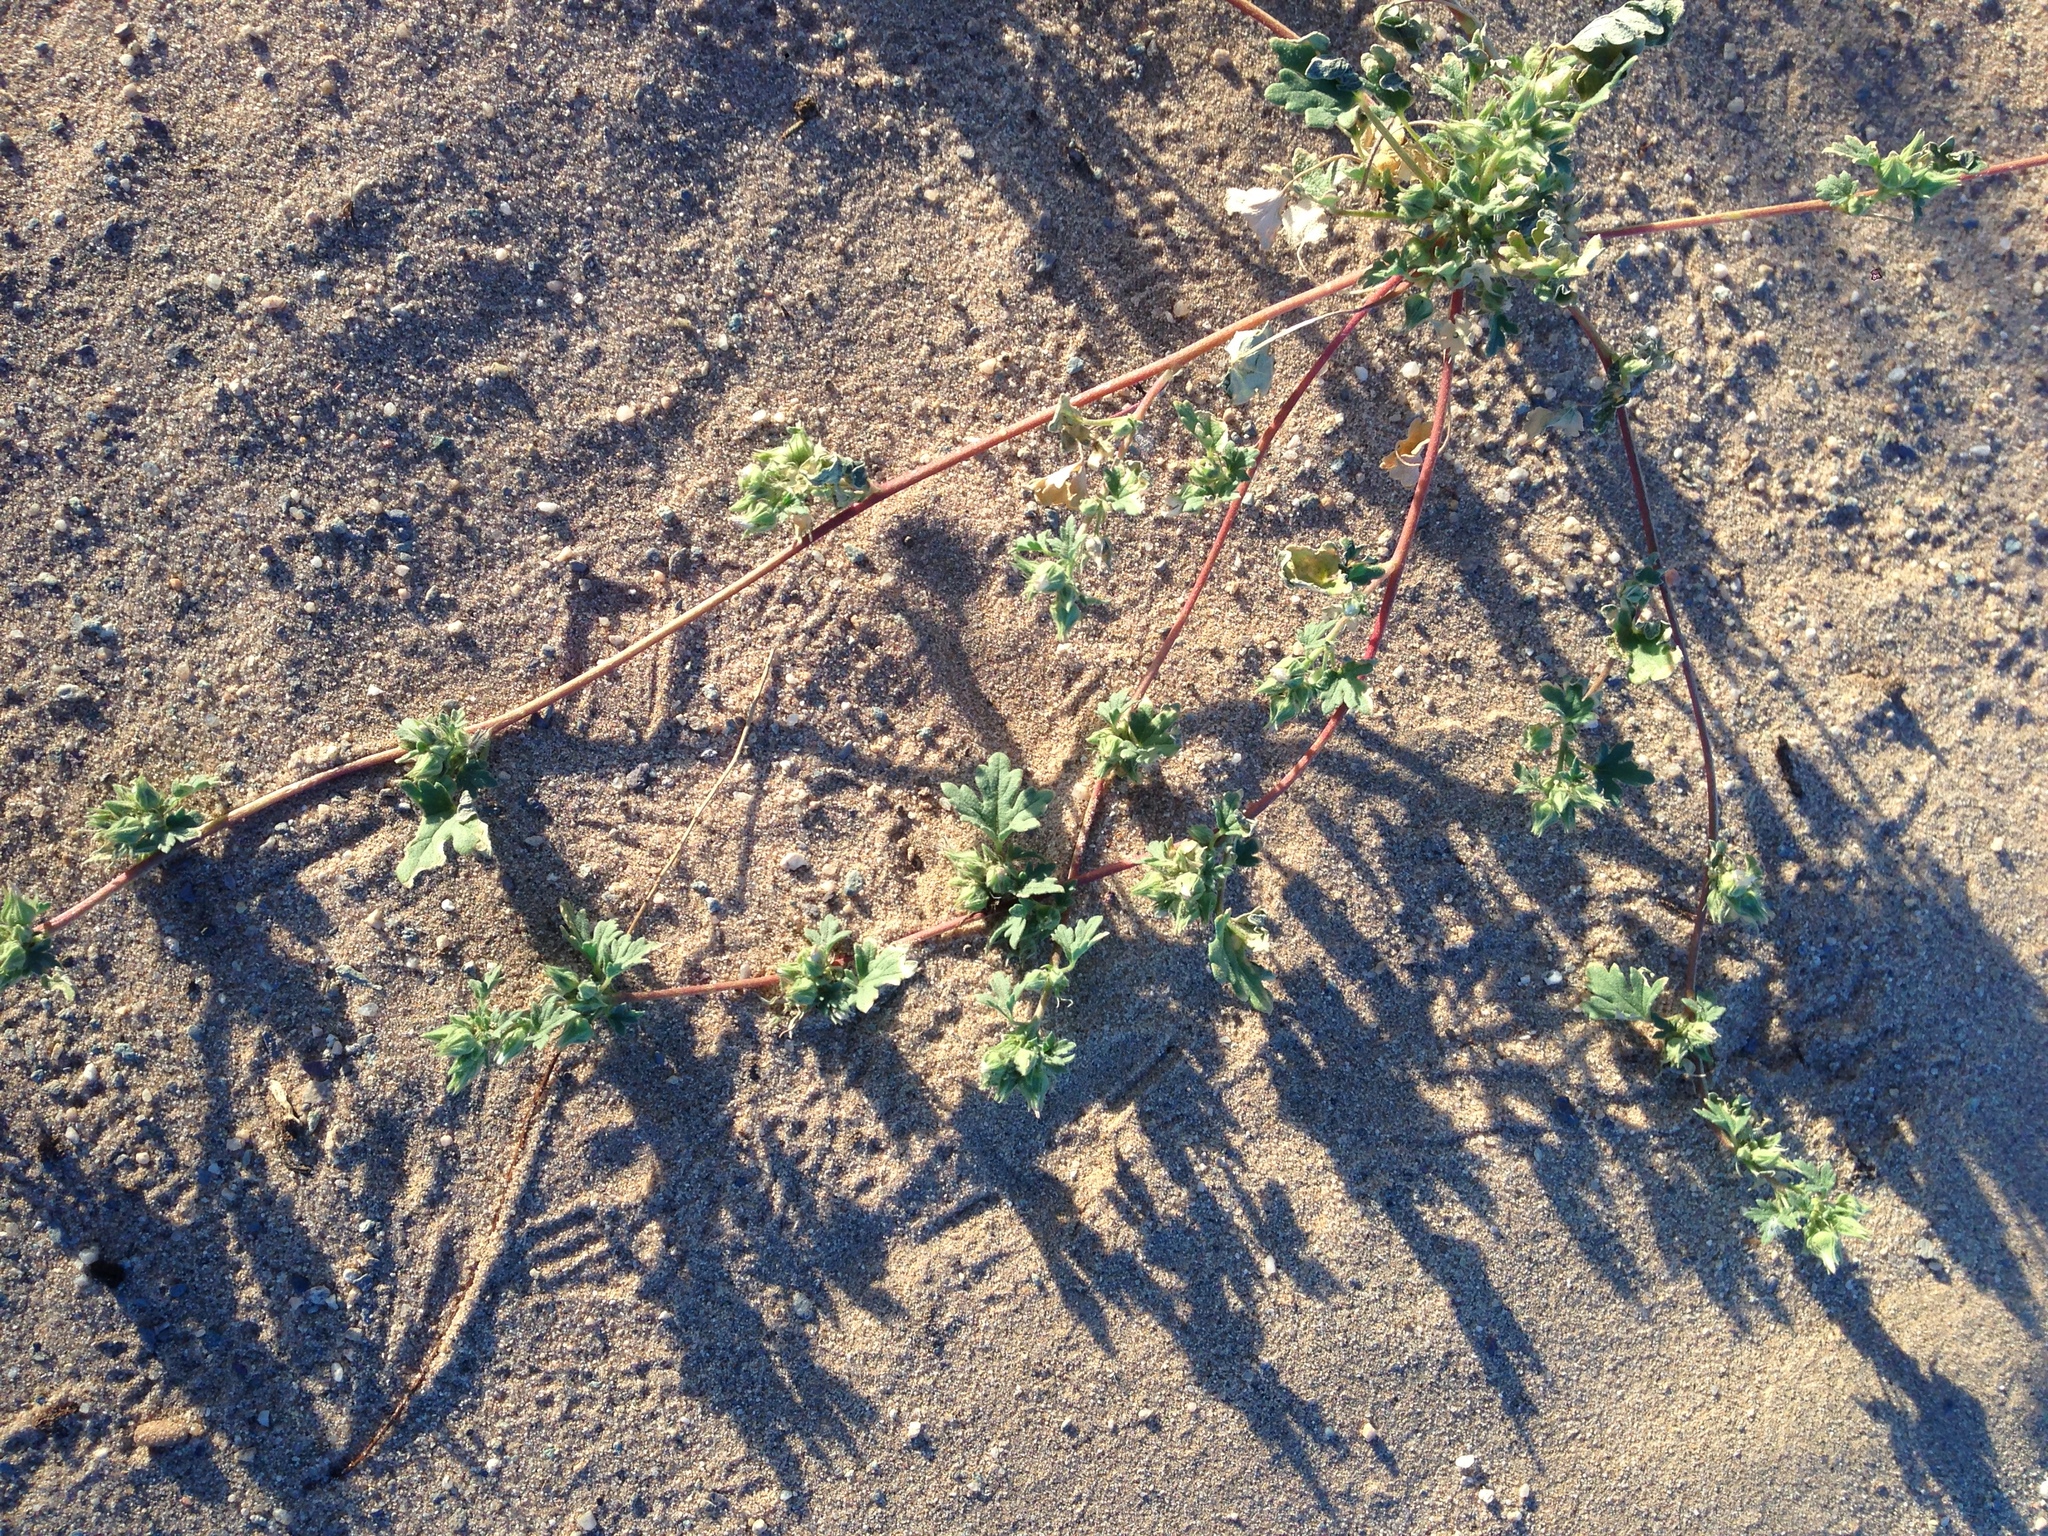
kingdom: Plantae
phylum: Tracheophyta
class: Magnoliopsida
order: Malvales
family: Malvaceae
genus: Eremalche
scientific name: Eremalche exilis
